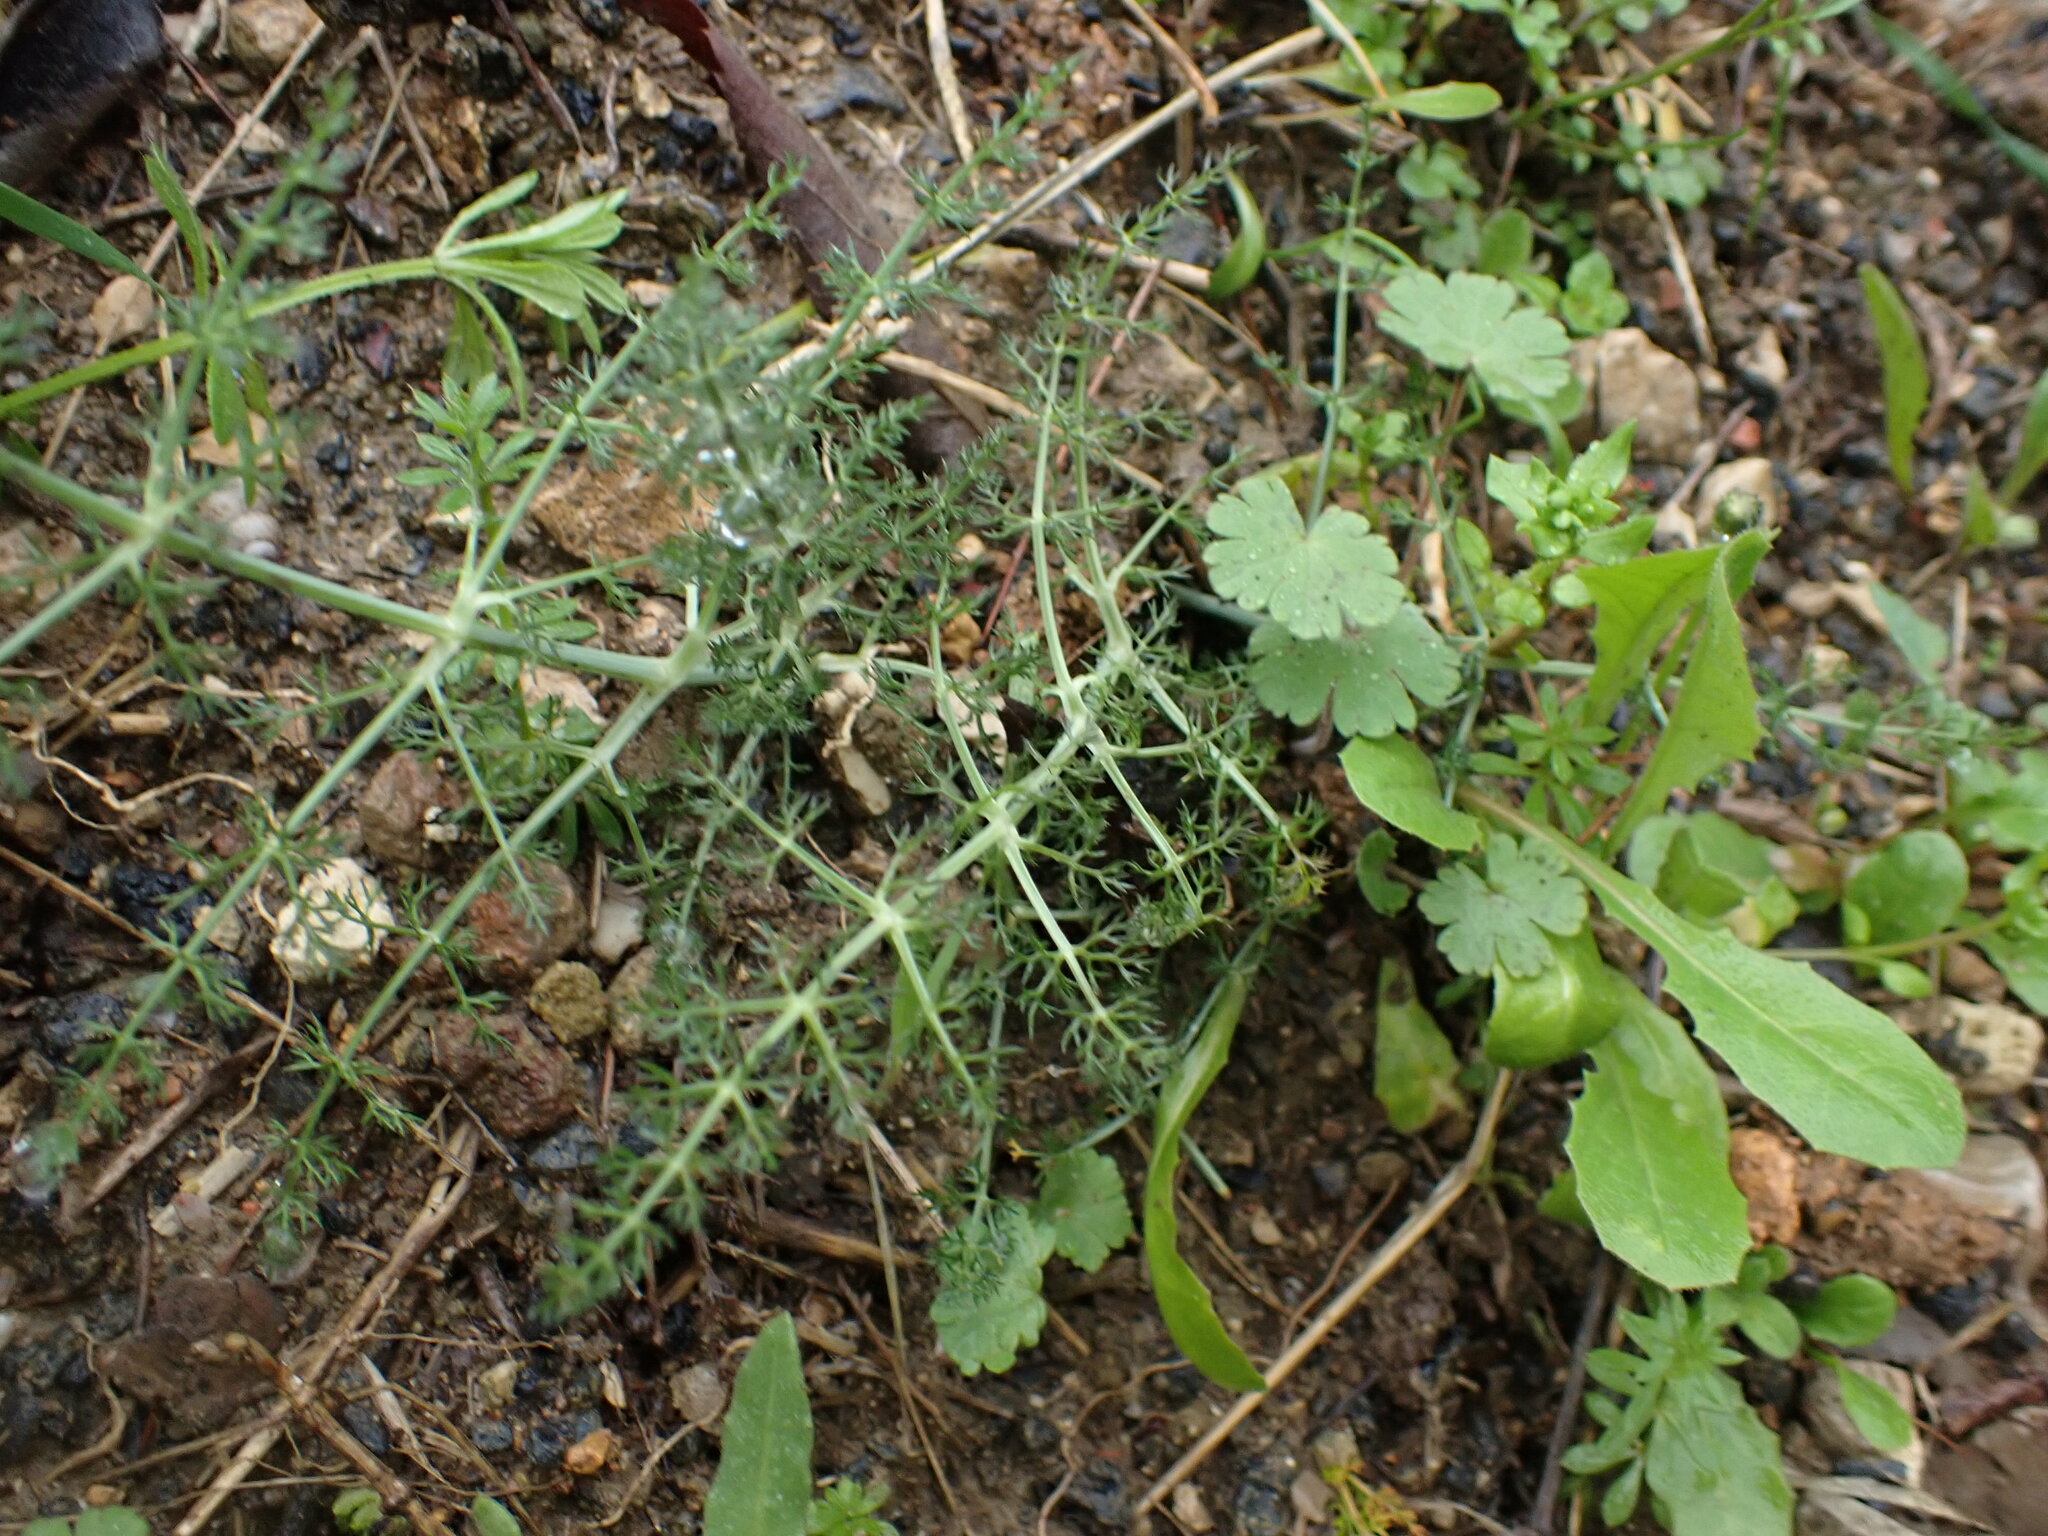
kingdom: Plantae
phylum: Tracheophyta
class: Magnoliopsida
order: Apiales
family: Apiaceae
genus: Foeniculum
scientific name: Foeniculum vulgare
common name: Fennel
